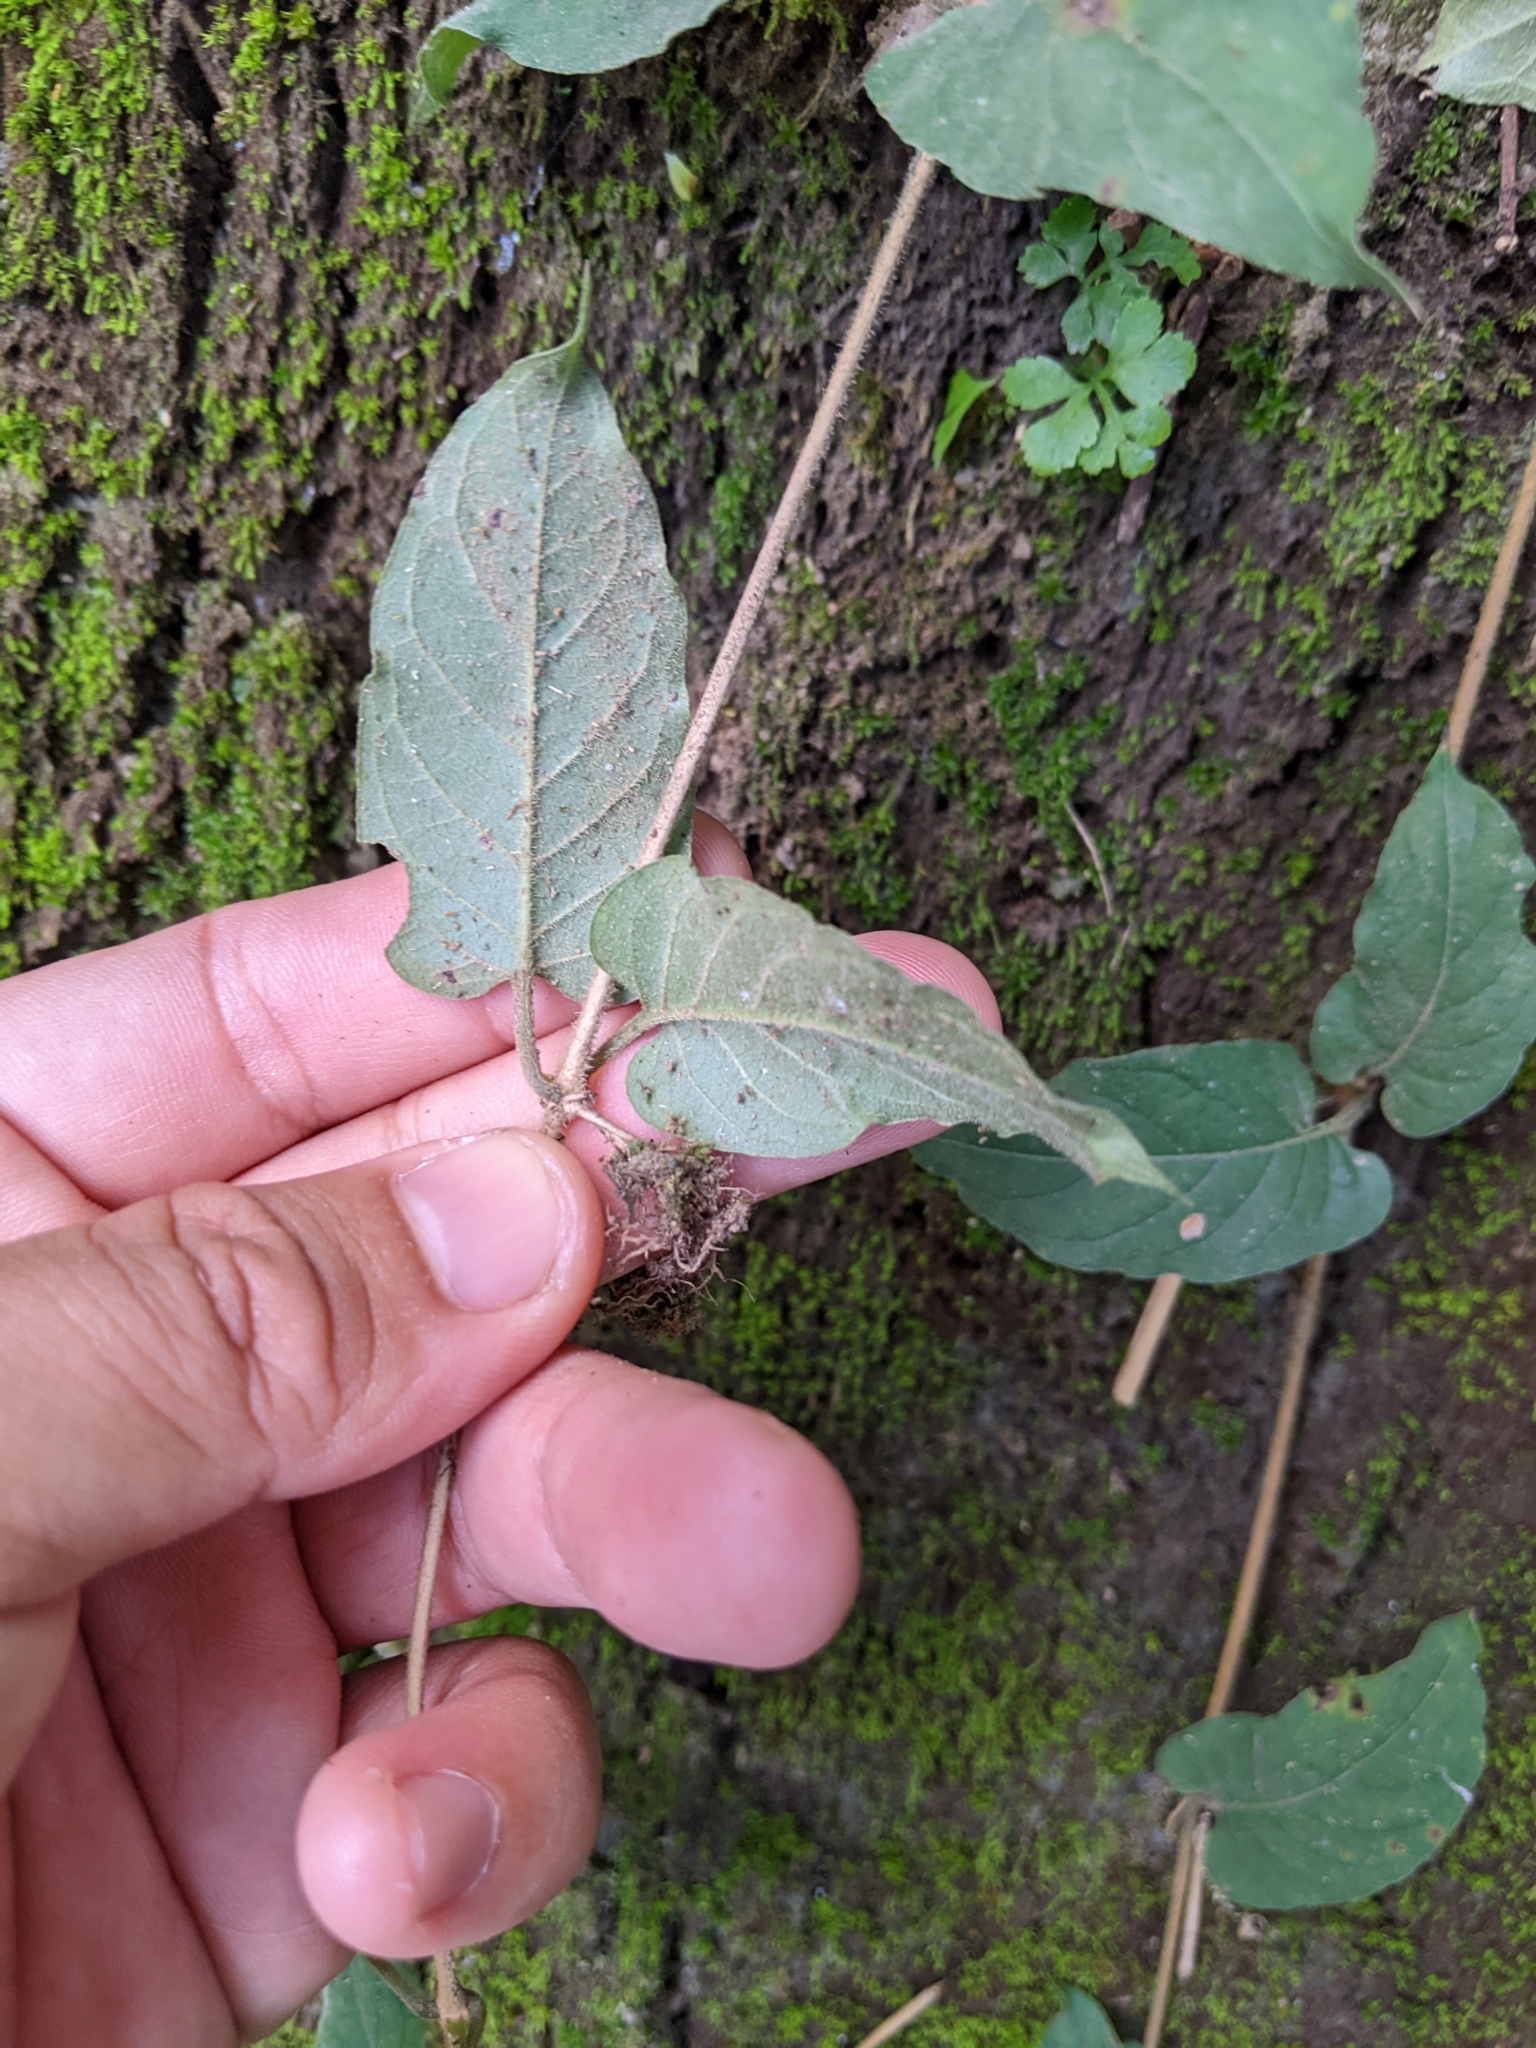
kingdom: Plantae
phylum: Tracheophyta
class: Magnoliopsida
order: Gentianales
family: Rubiaceae
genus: Paederia
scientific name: Paederia cavaleriei
